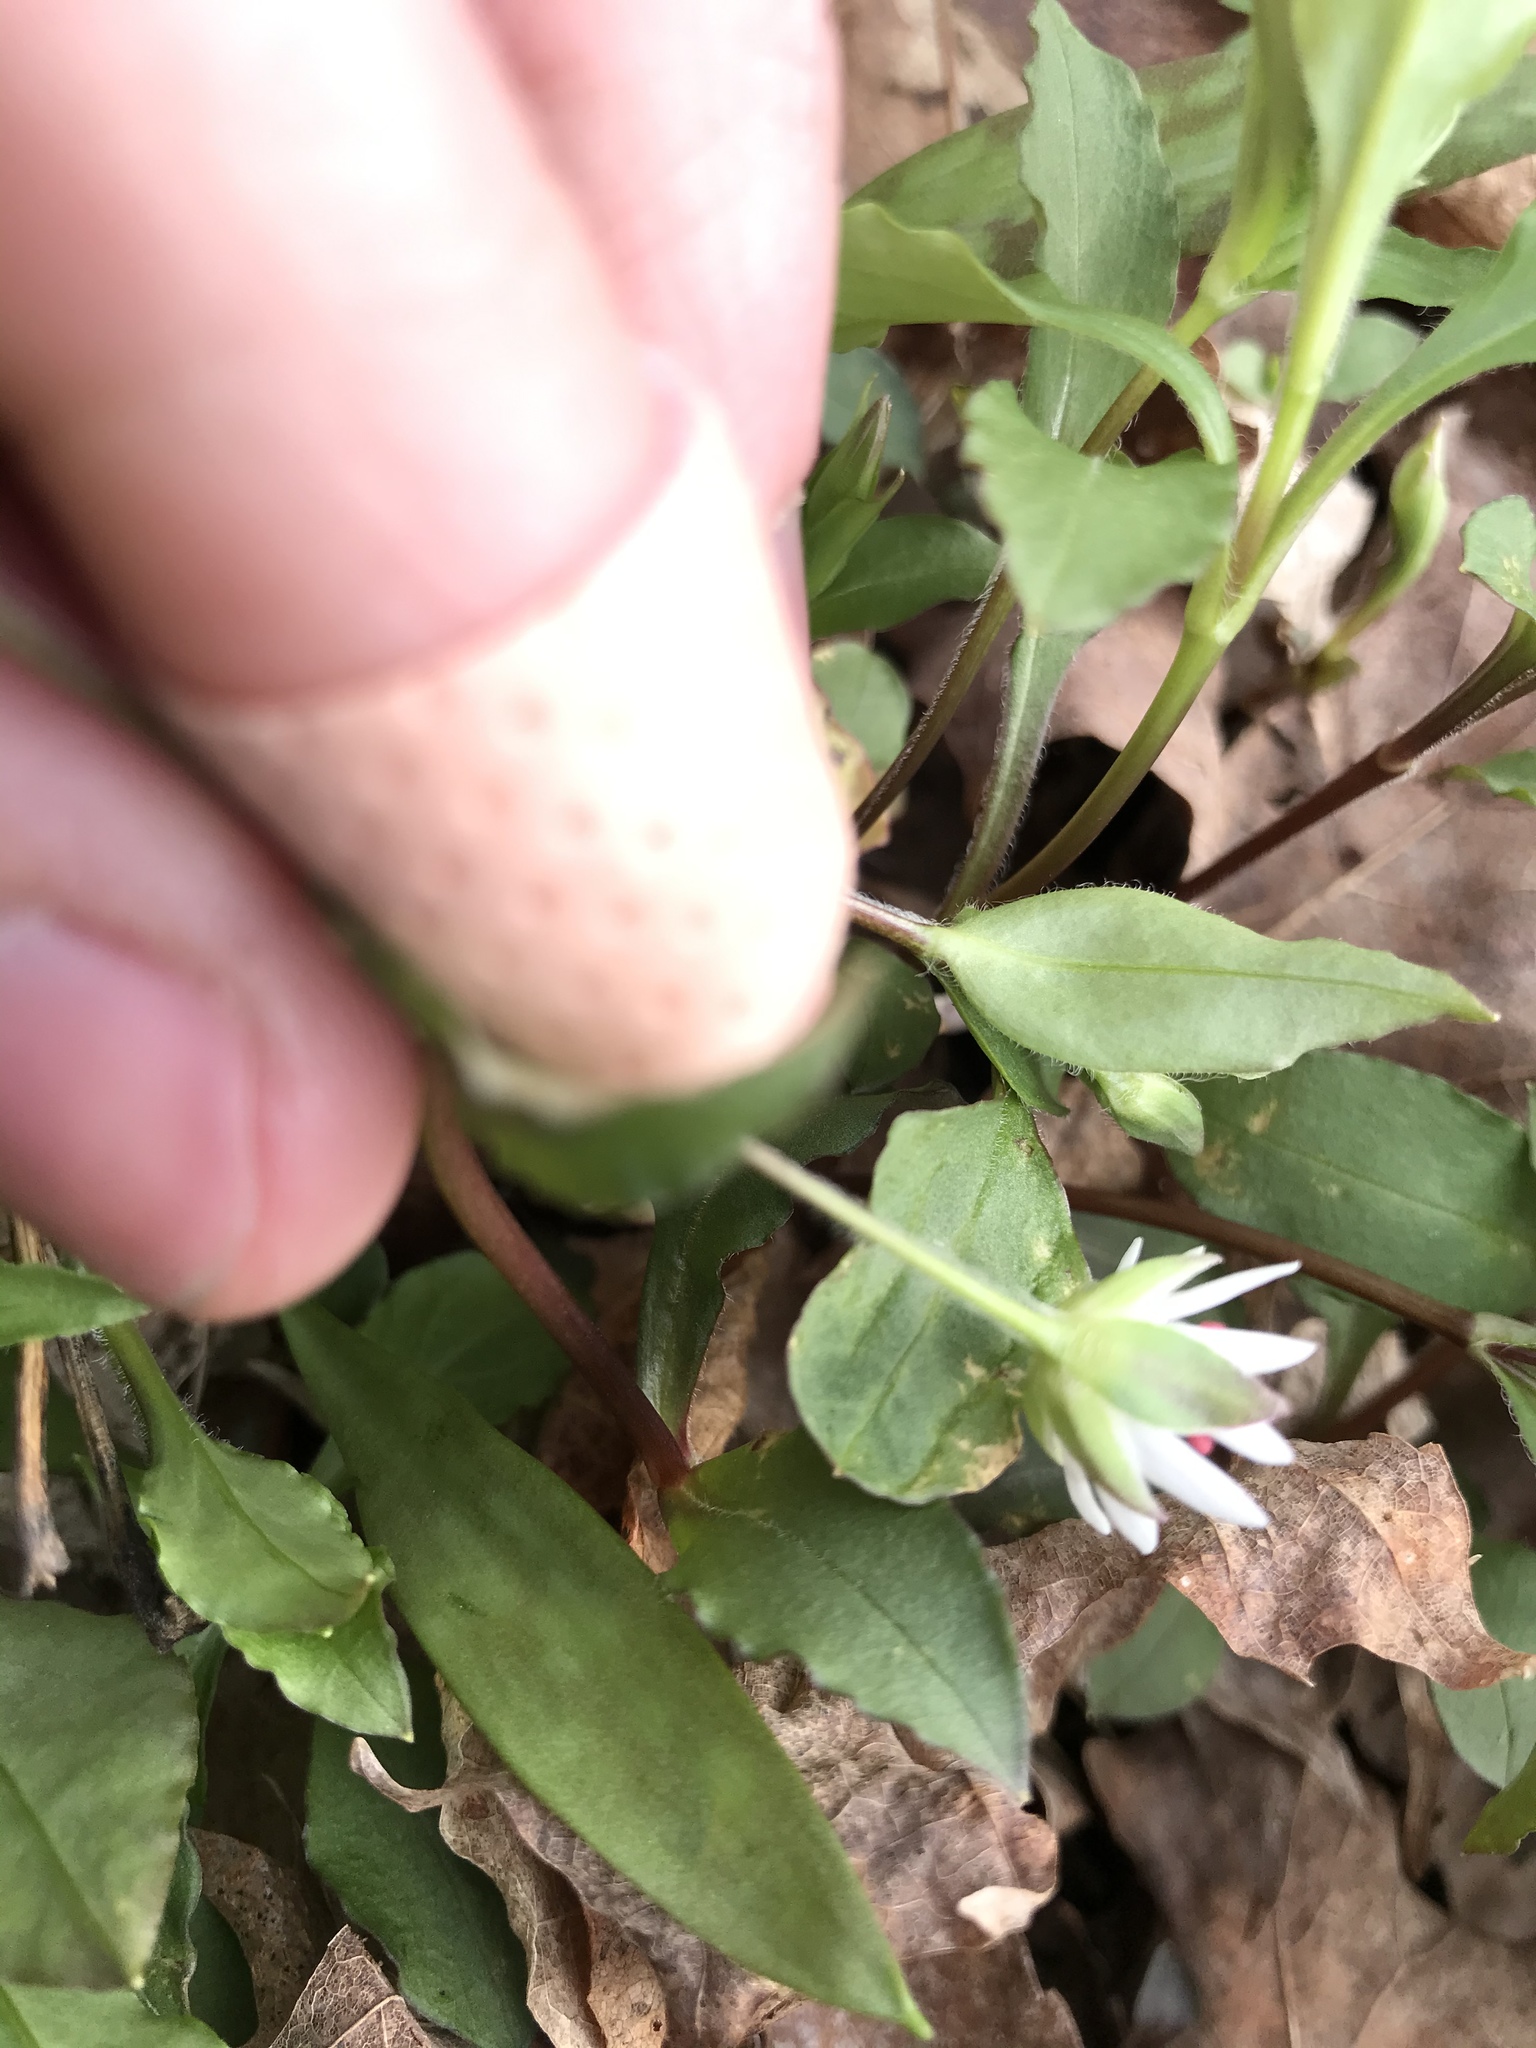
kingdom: Plantae
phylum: Tracheophyta
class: Magnoliopsida
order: Caryophyllales
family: Caryophyllaceae
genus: Stellaria
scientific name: Stellaria pubera
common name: Star chickweed
